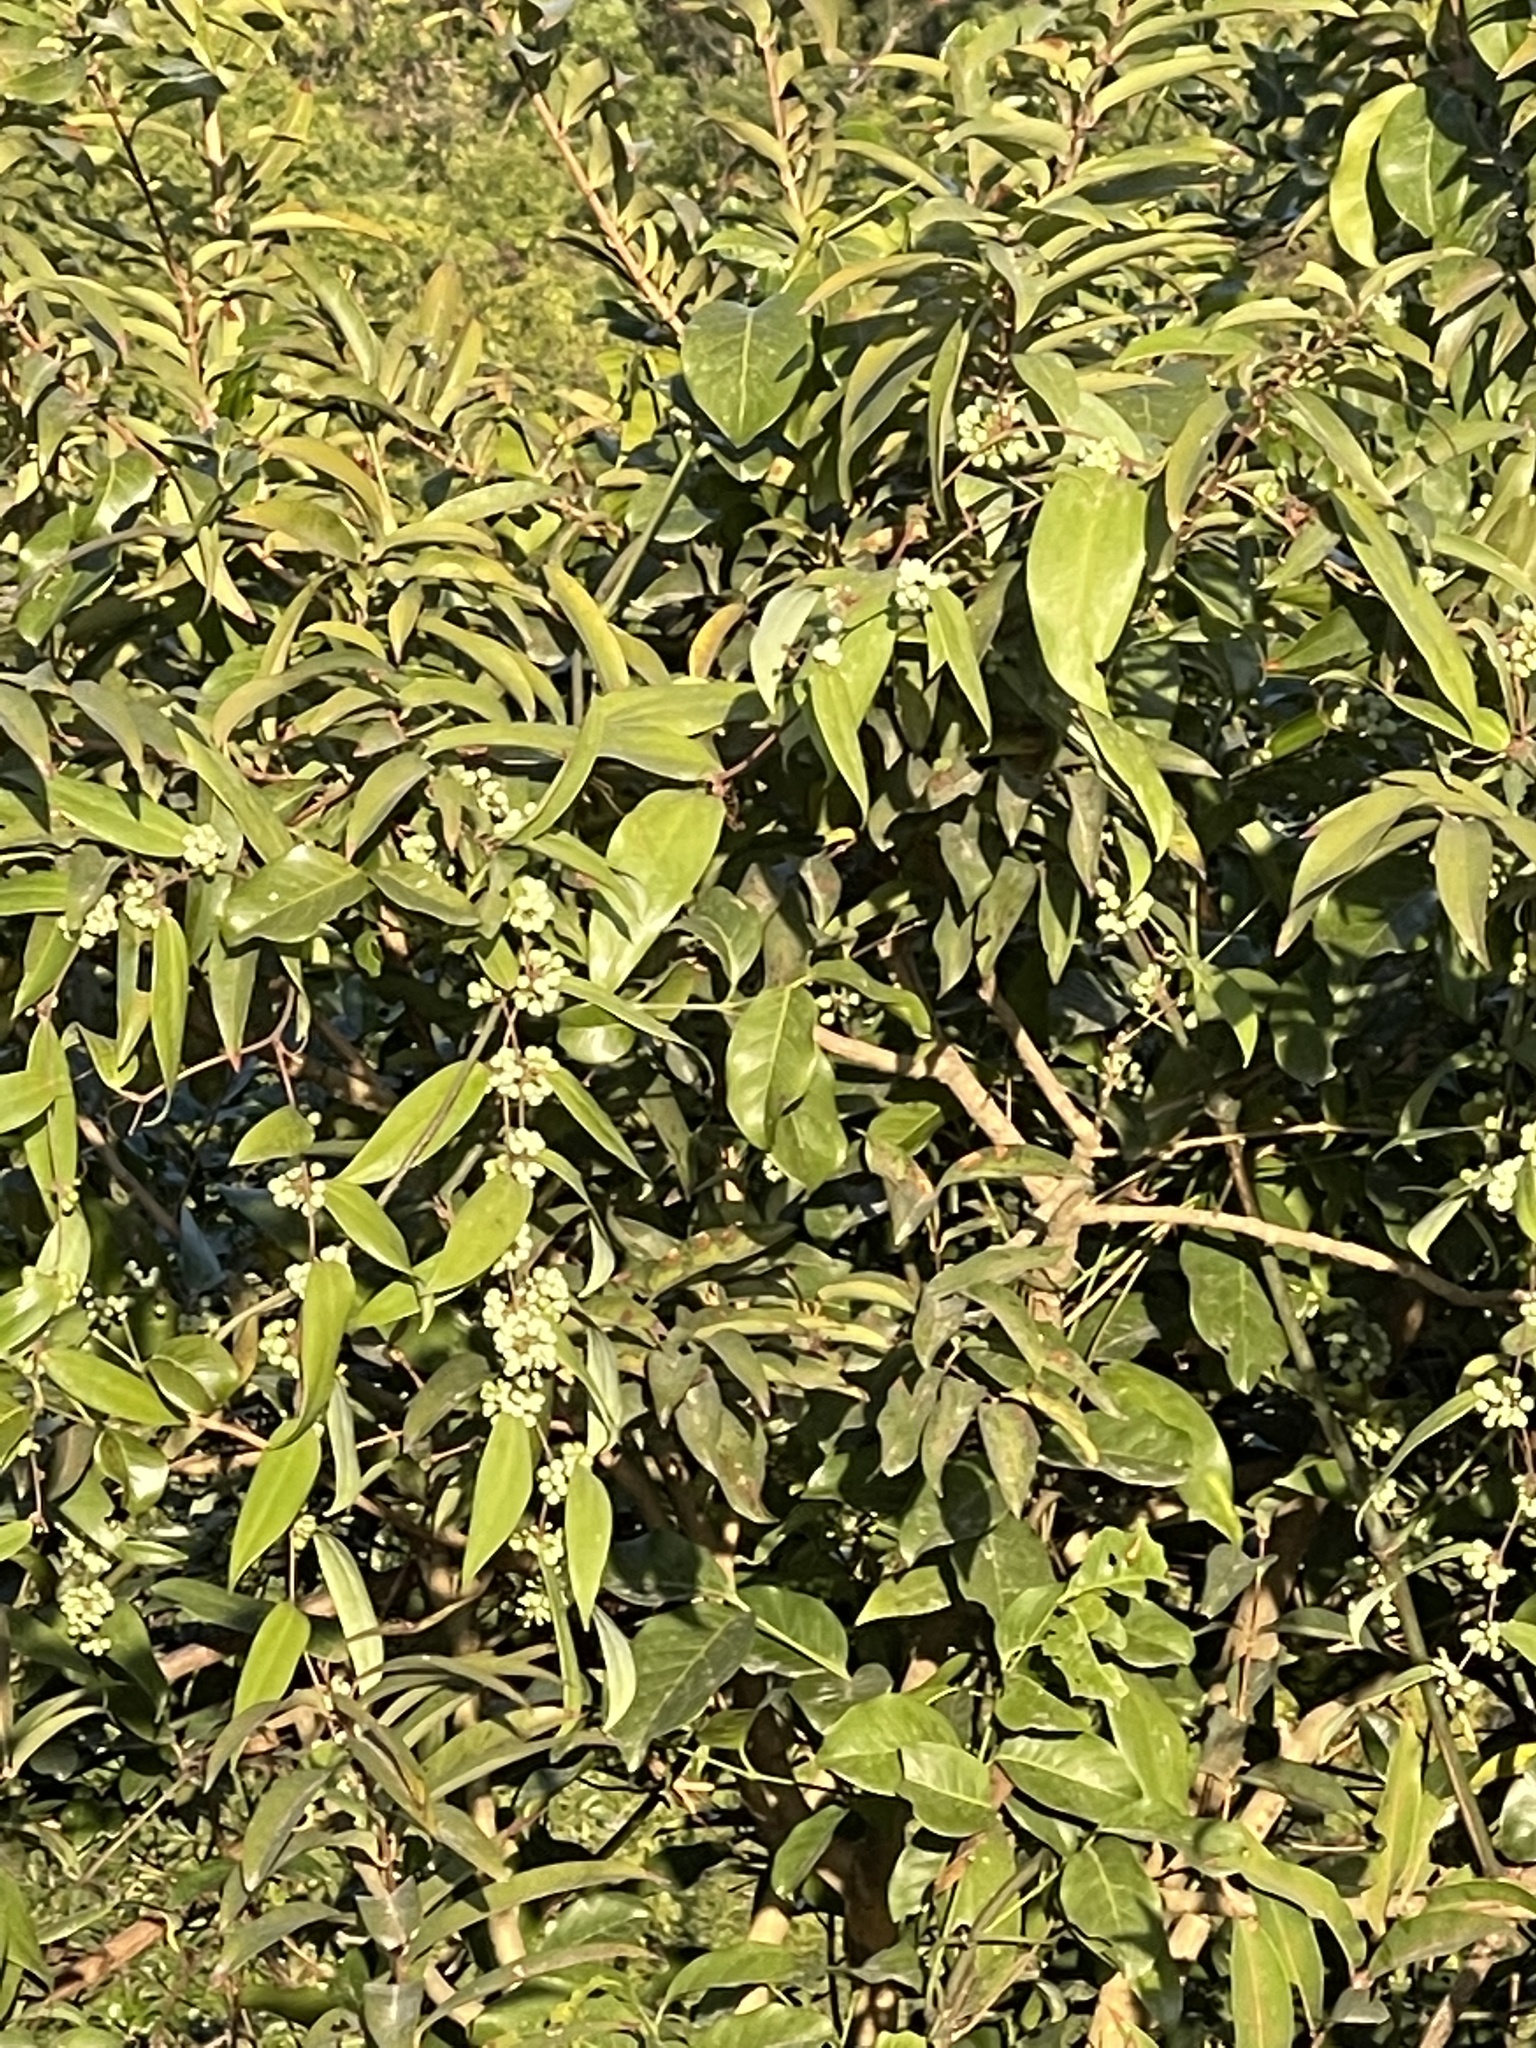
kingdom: Plantae
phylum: Tracheophyta
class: Liliopsida
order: Liliales
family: Smilacaceae
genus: Smilax
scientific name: Smilax glabra
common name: Chinese smilax
